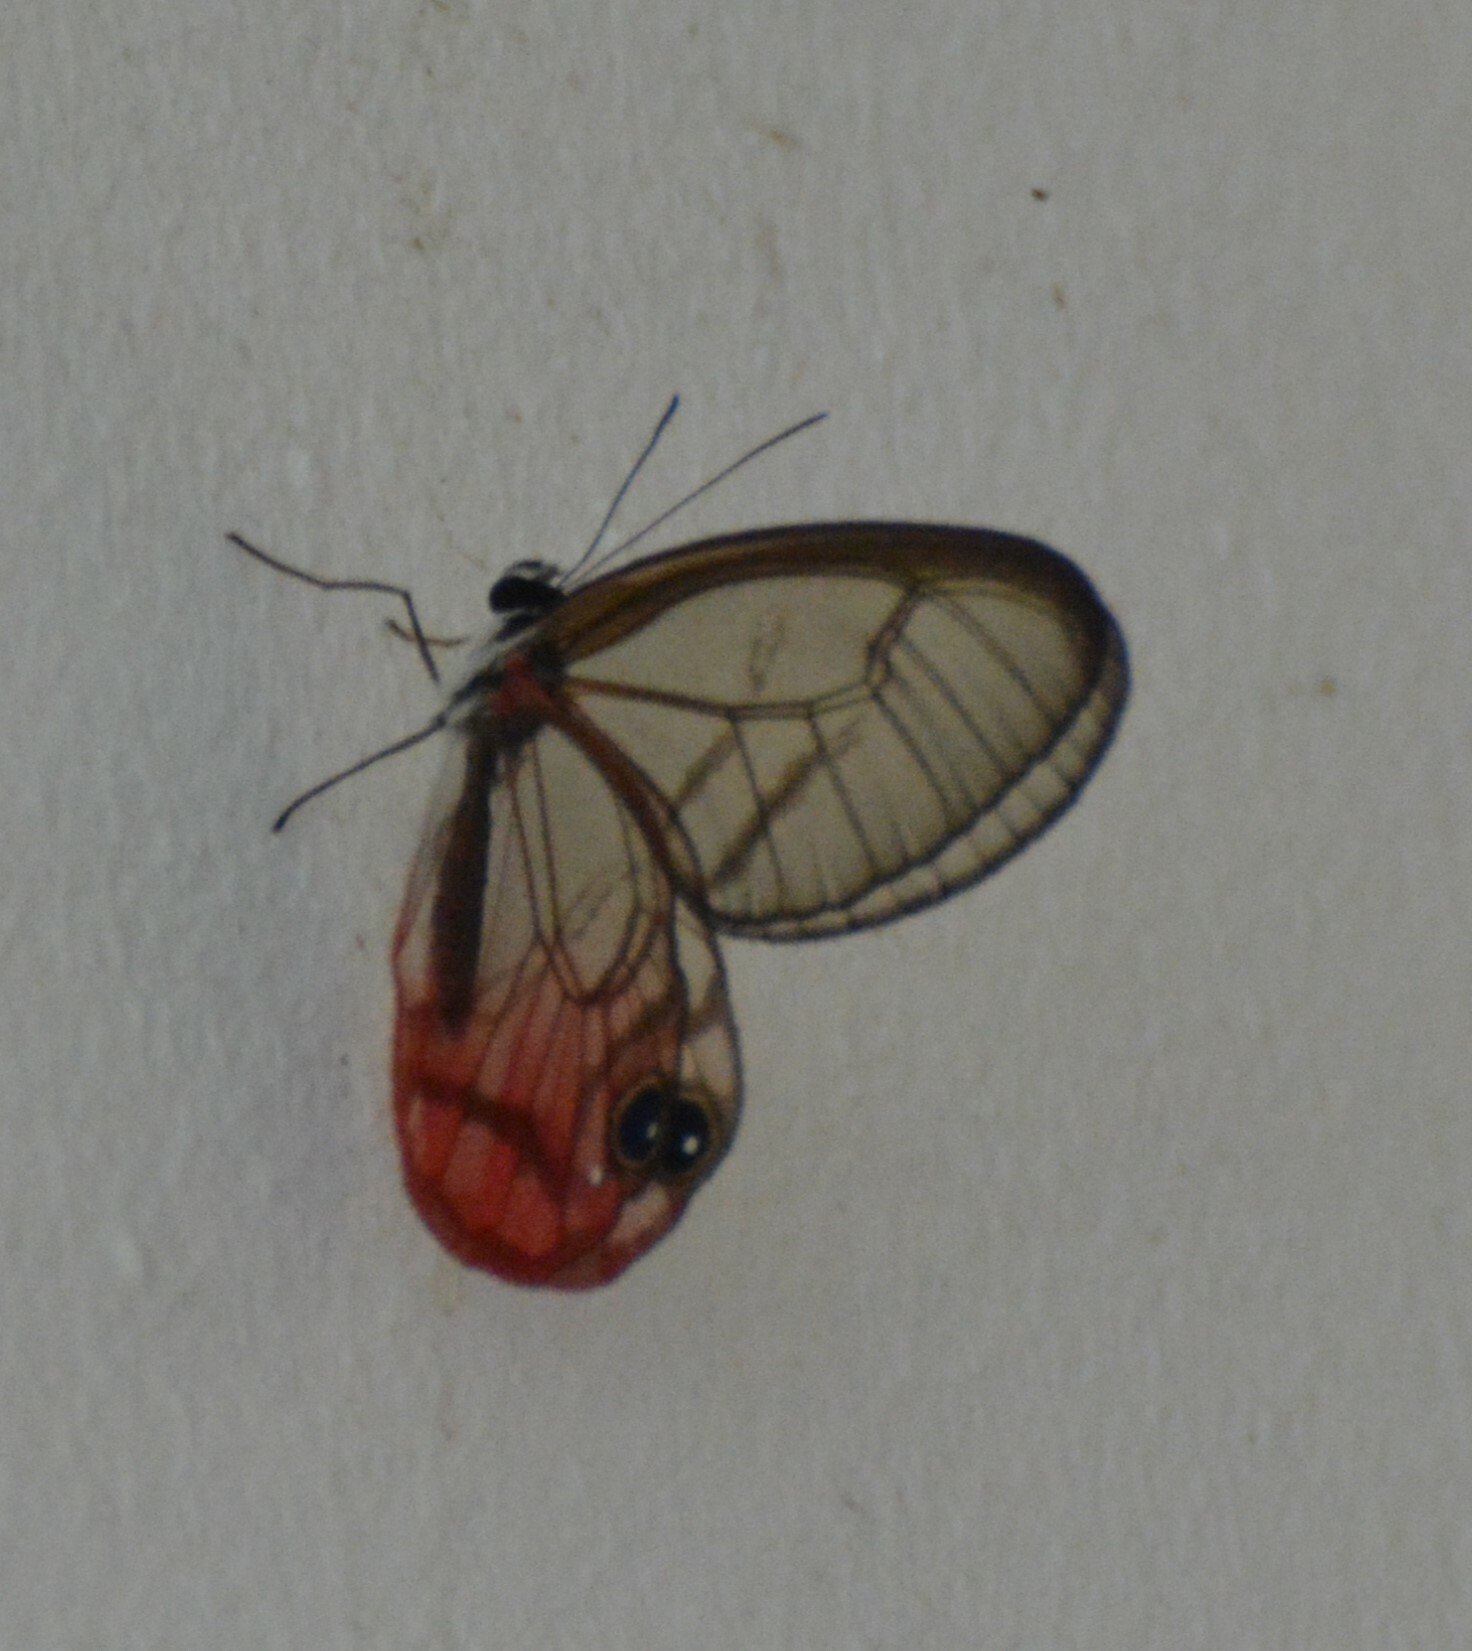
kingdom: Animalia
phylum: Arthropoda
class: Insecta
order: Lepidoptera
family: Nymphalidae
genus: Cithaerias
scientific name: Cithaerias pireta
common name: Rusted clearwing-satyr
